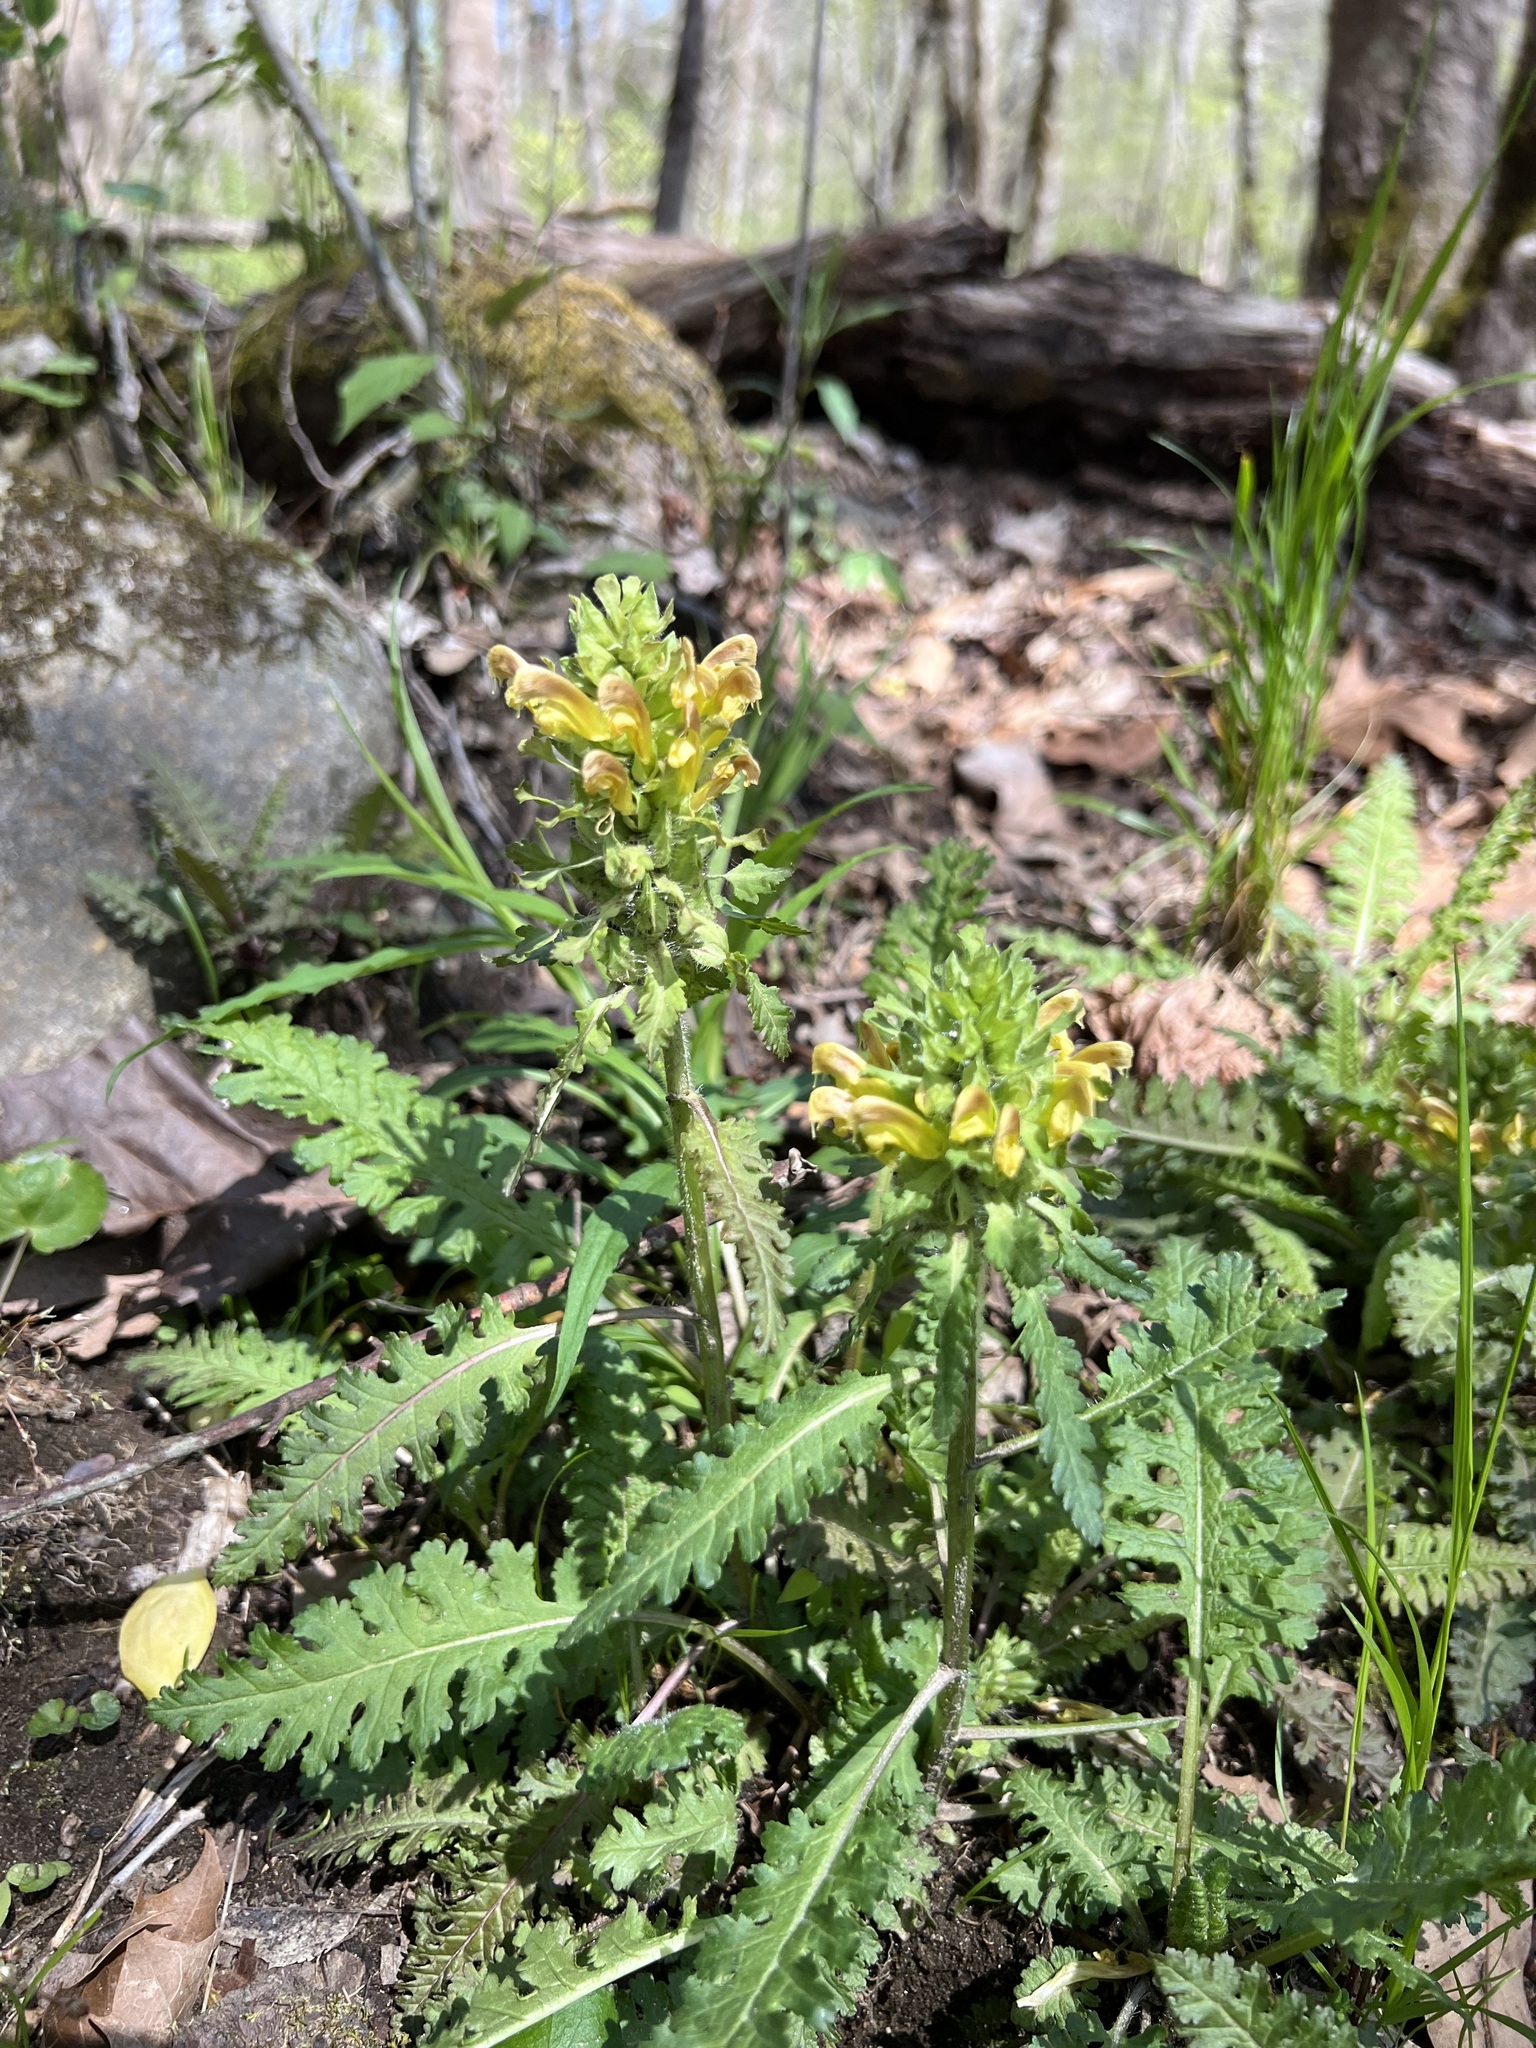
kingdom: Plantae
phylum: Tracheophyta
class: Magnoliopsida
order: Lamiales
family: Orobanchaceae
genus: Pedicularis
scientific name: Pedicularis canadensis
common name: Early lousewort
